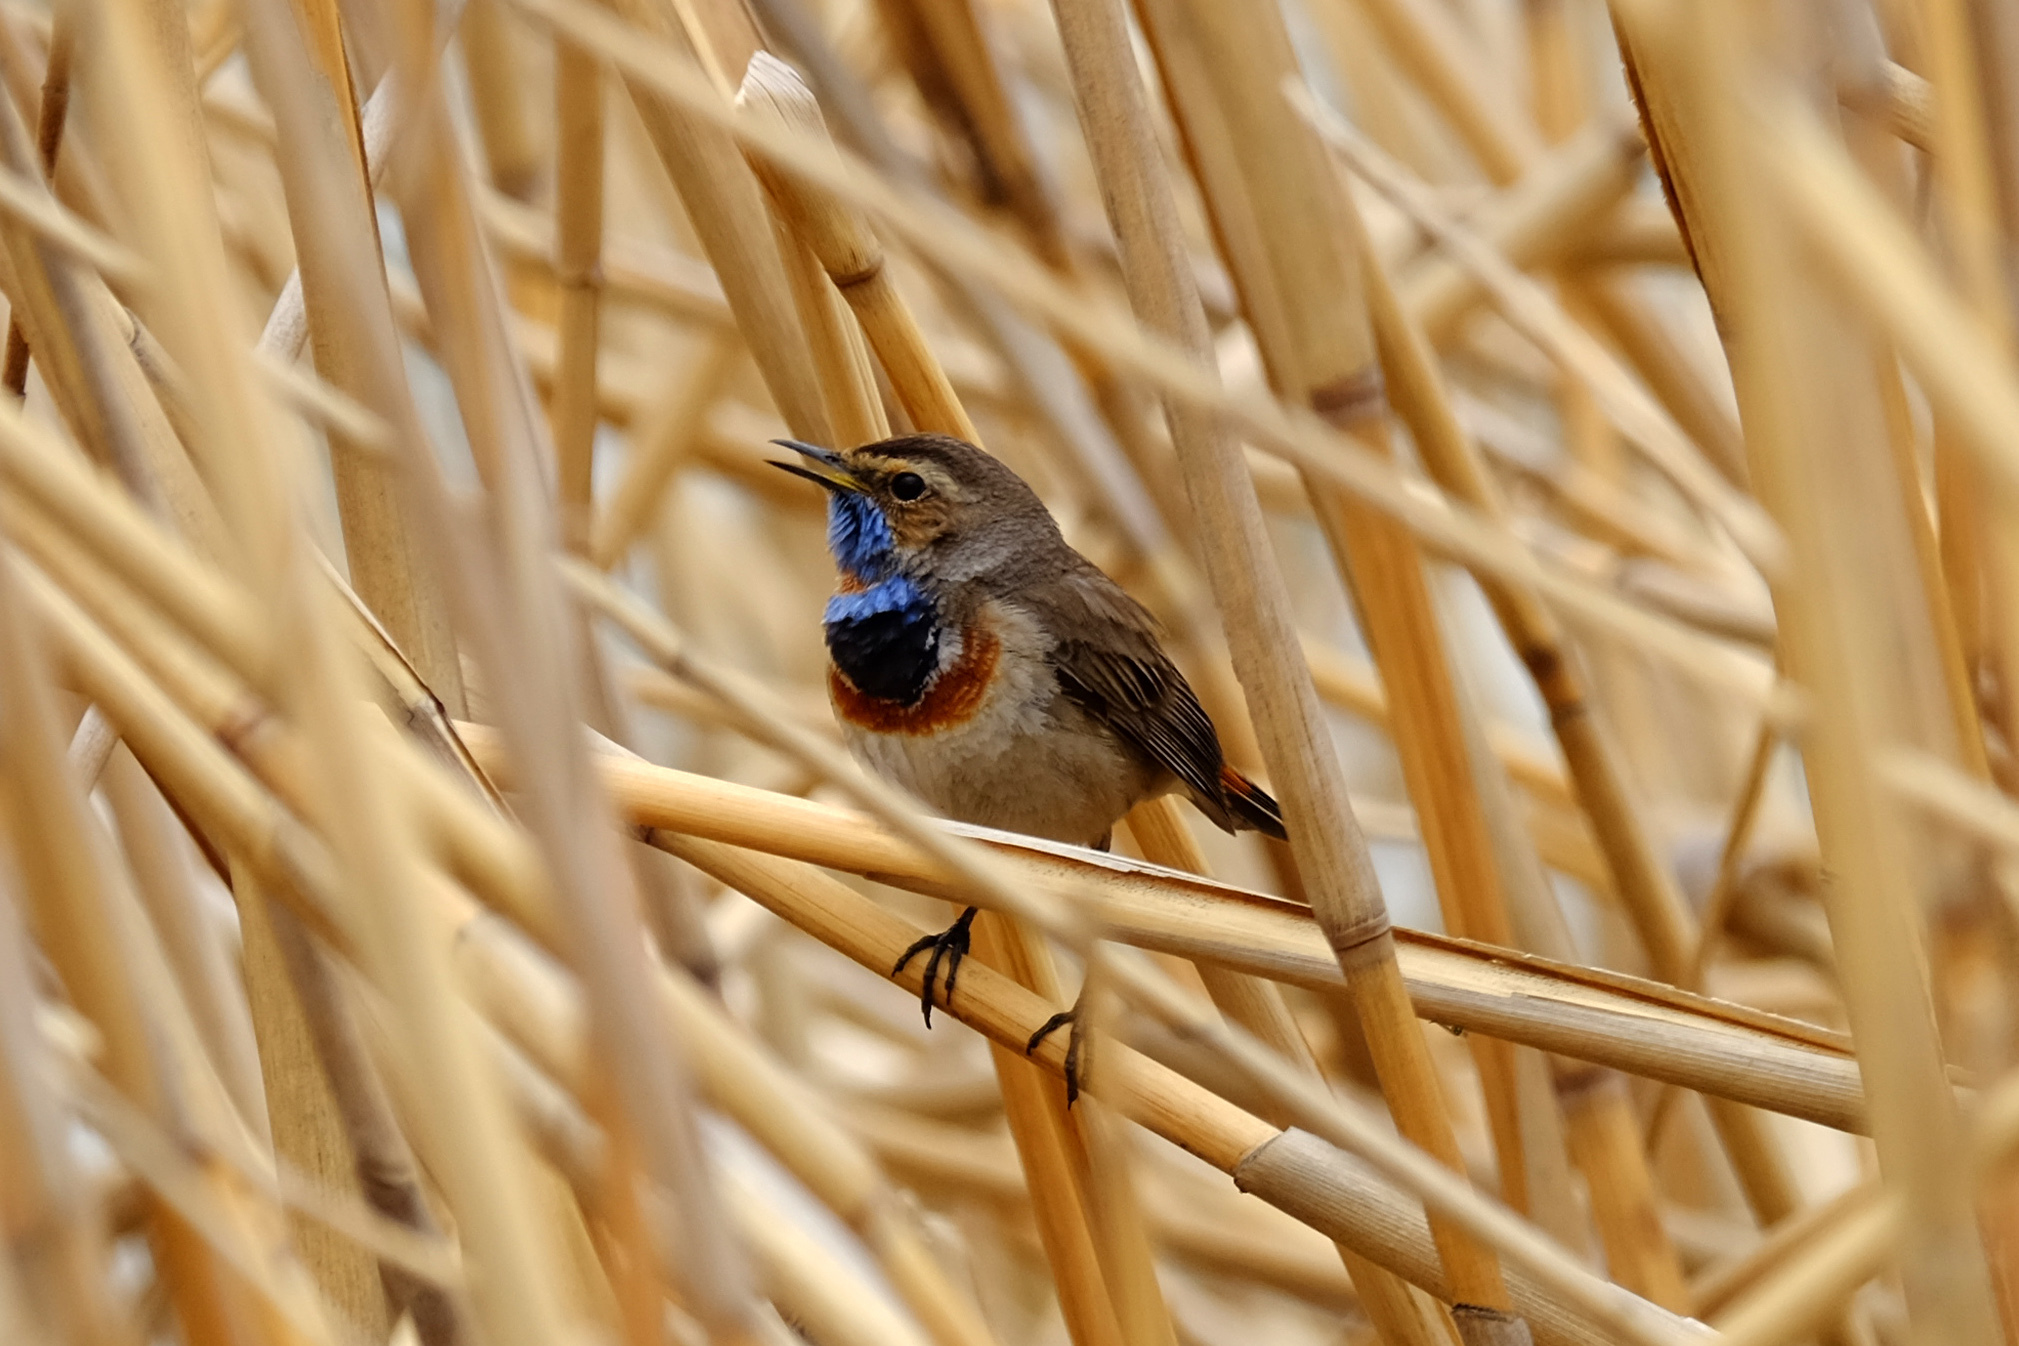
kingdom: Animalia
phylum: Chordata
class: Aves
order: Passeriformes
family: Muscicapidae
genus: Luscinia
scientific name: Luscinia svecica
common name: Bluethroat
